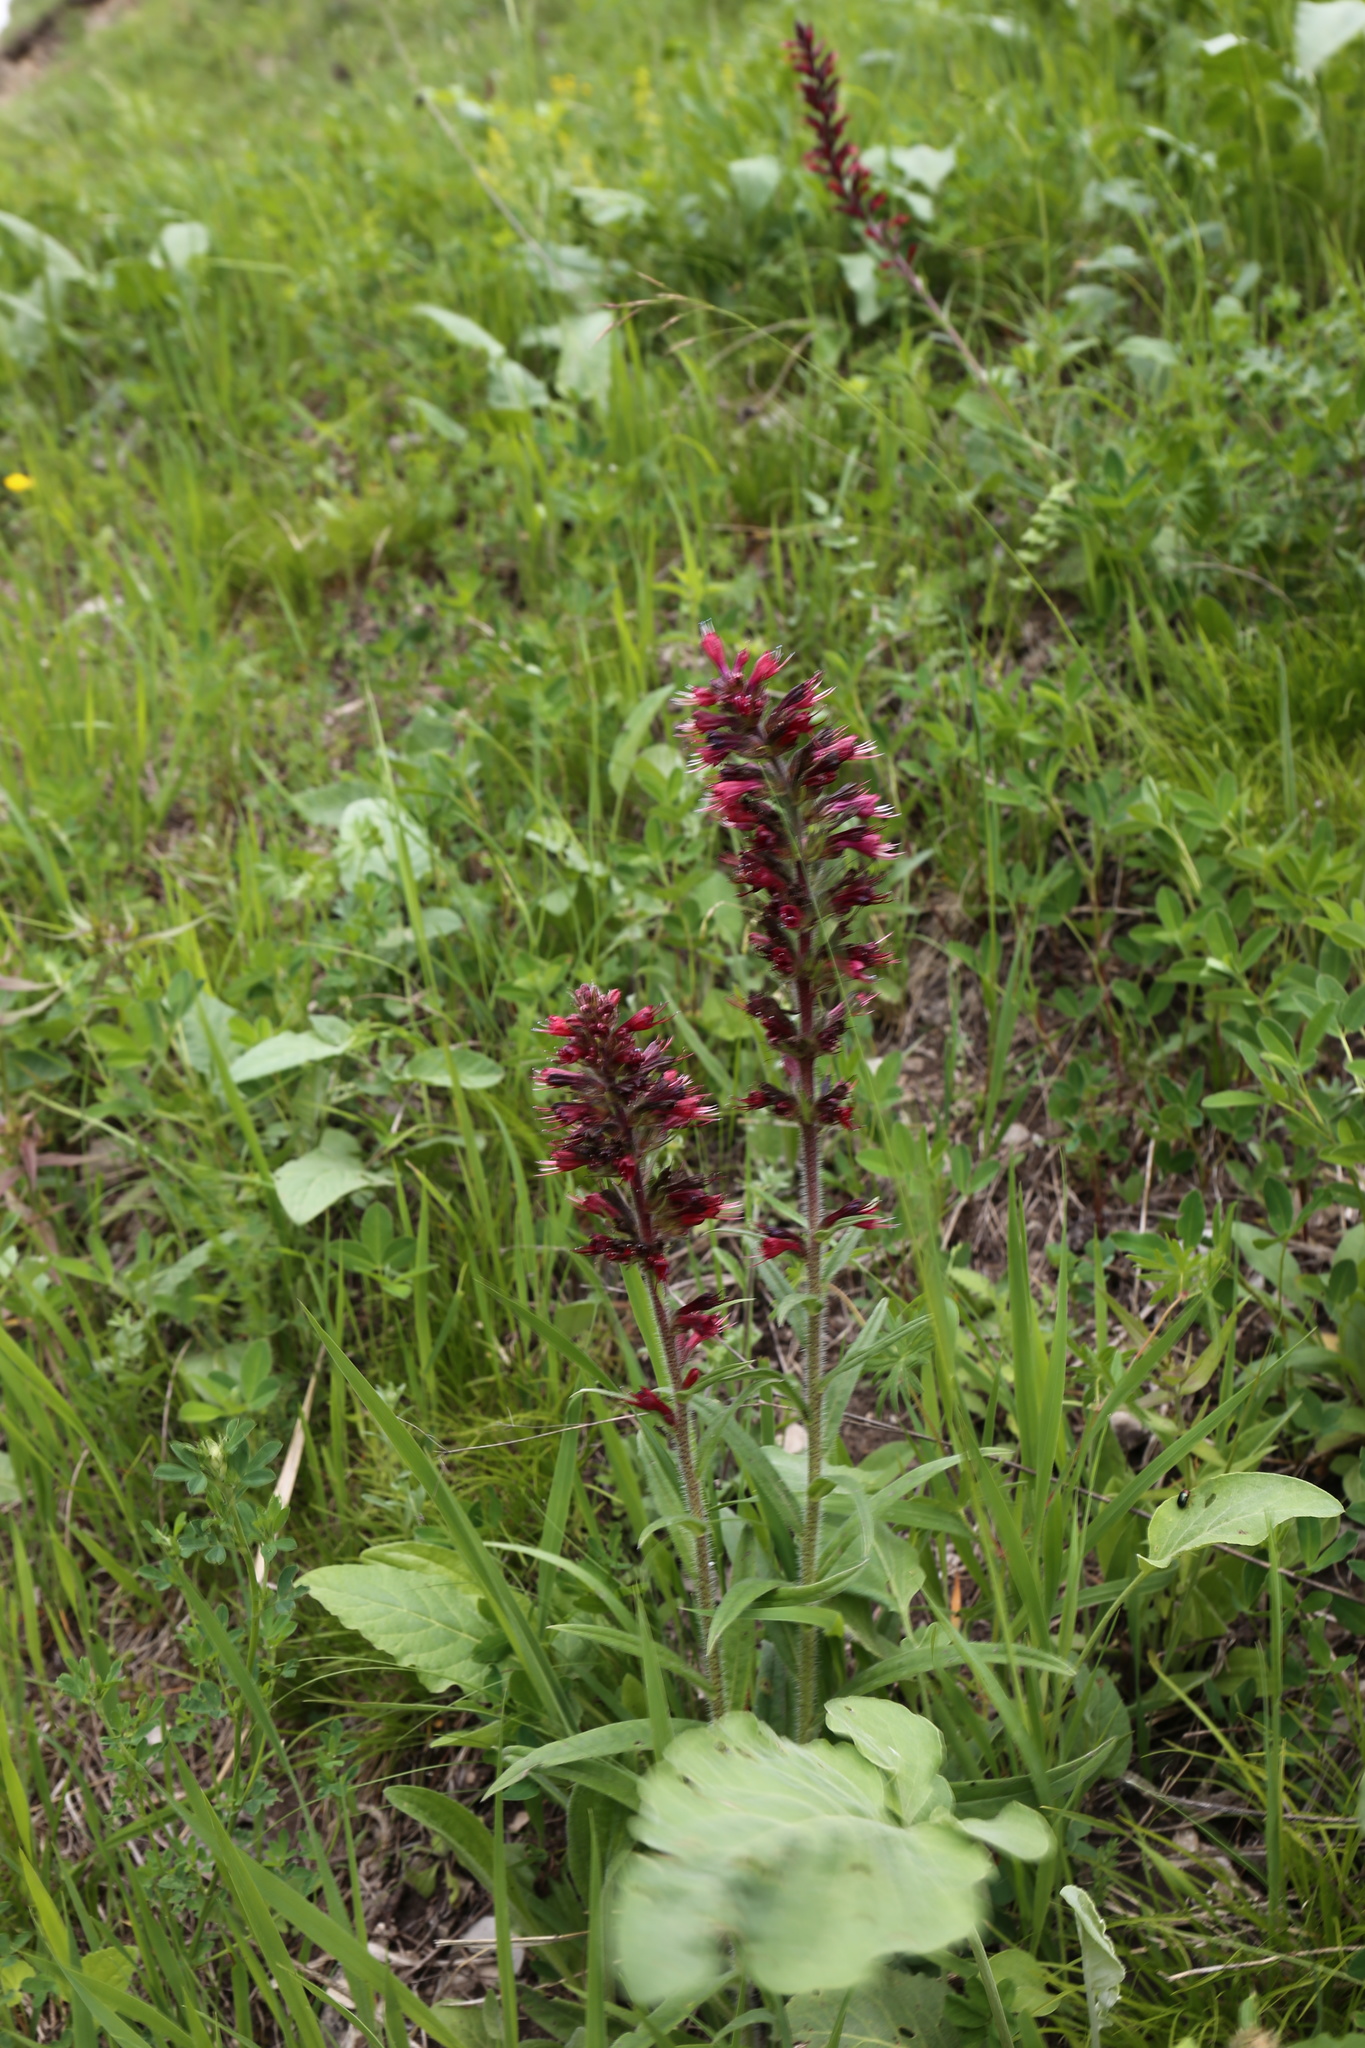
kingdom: Plantae
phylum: Tracheophyta
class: Magnoliopsida
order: Boraginales
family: Boraginaceae
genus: Pontechium
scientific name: Pontechium maculatum
